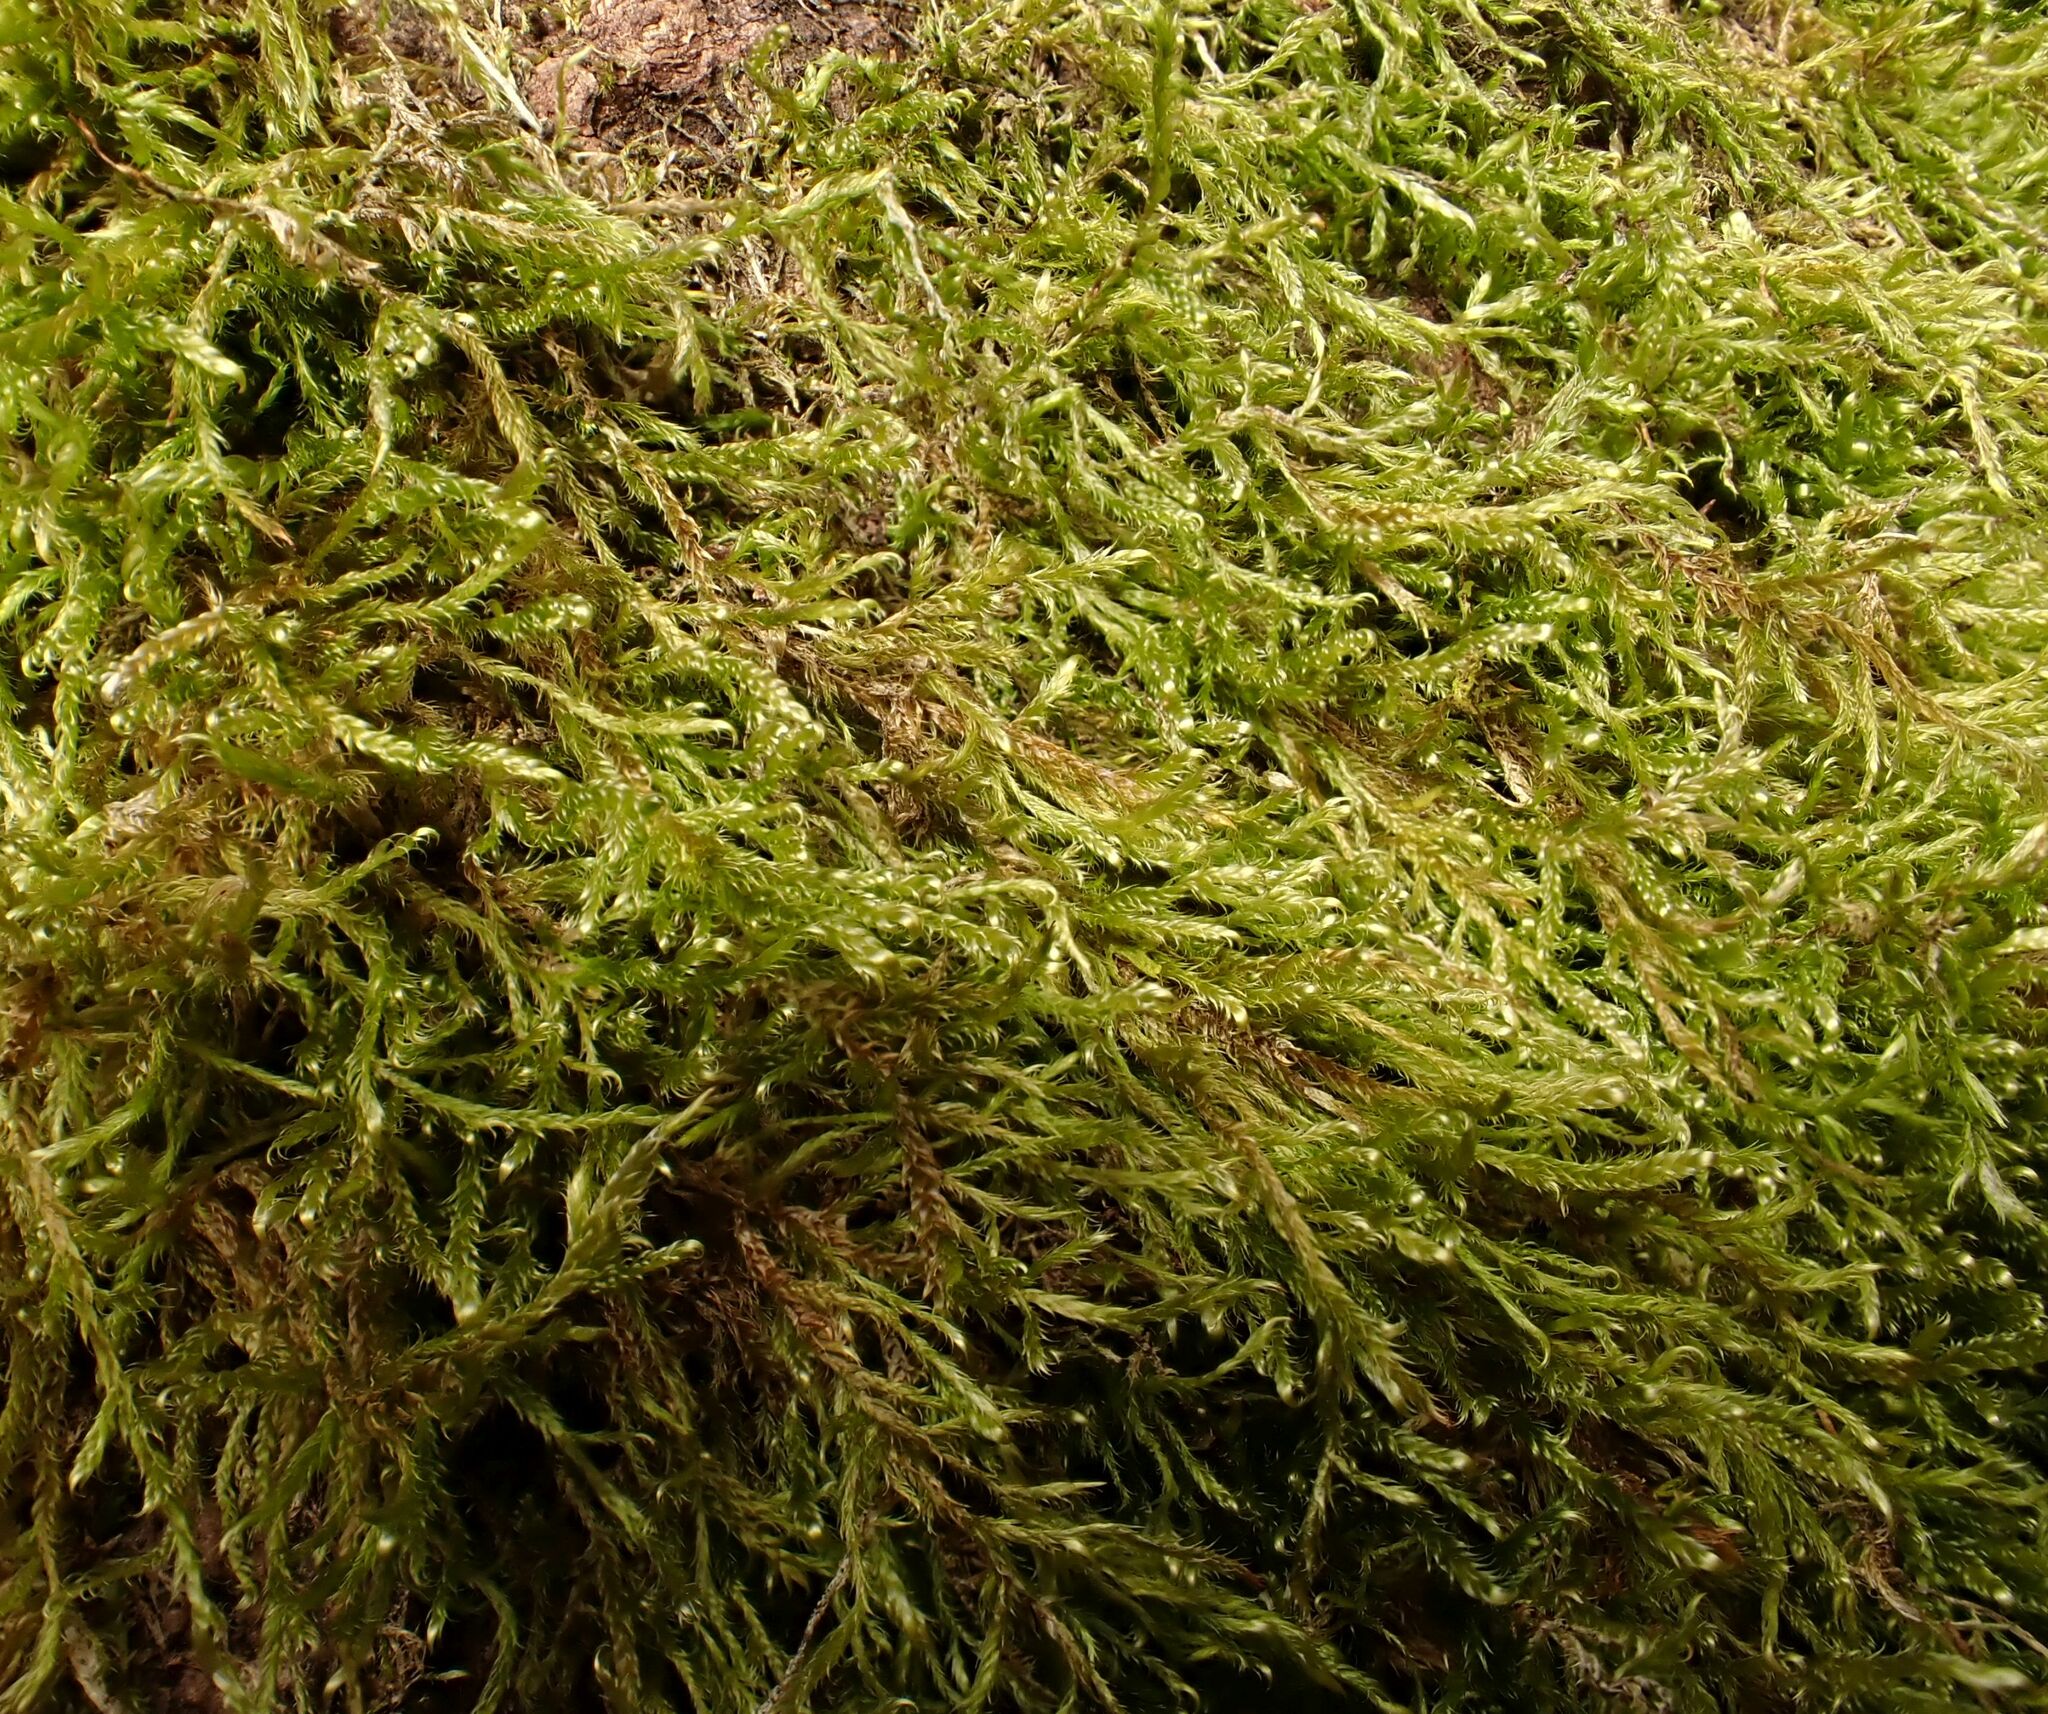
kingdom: Plantae
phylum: Bryophyta
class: Bryopsida
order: Hypnales
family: Hypnaceae
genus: Hypnum
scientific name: Hypnum cupressiforme
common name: Cypress-leaved plait-moss
